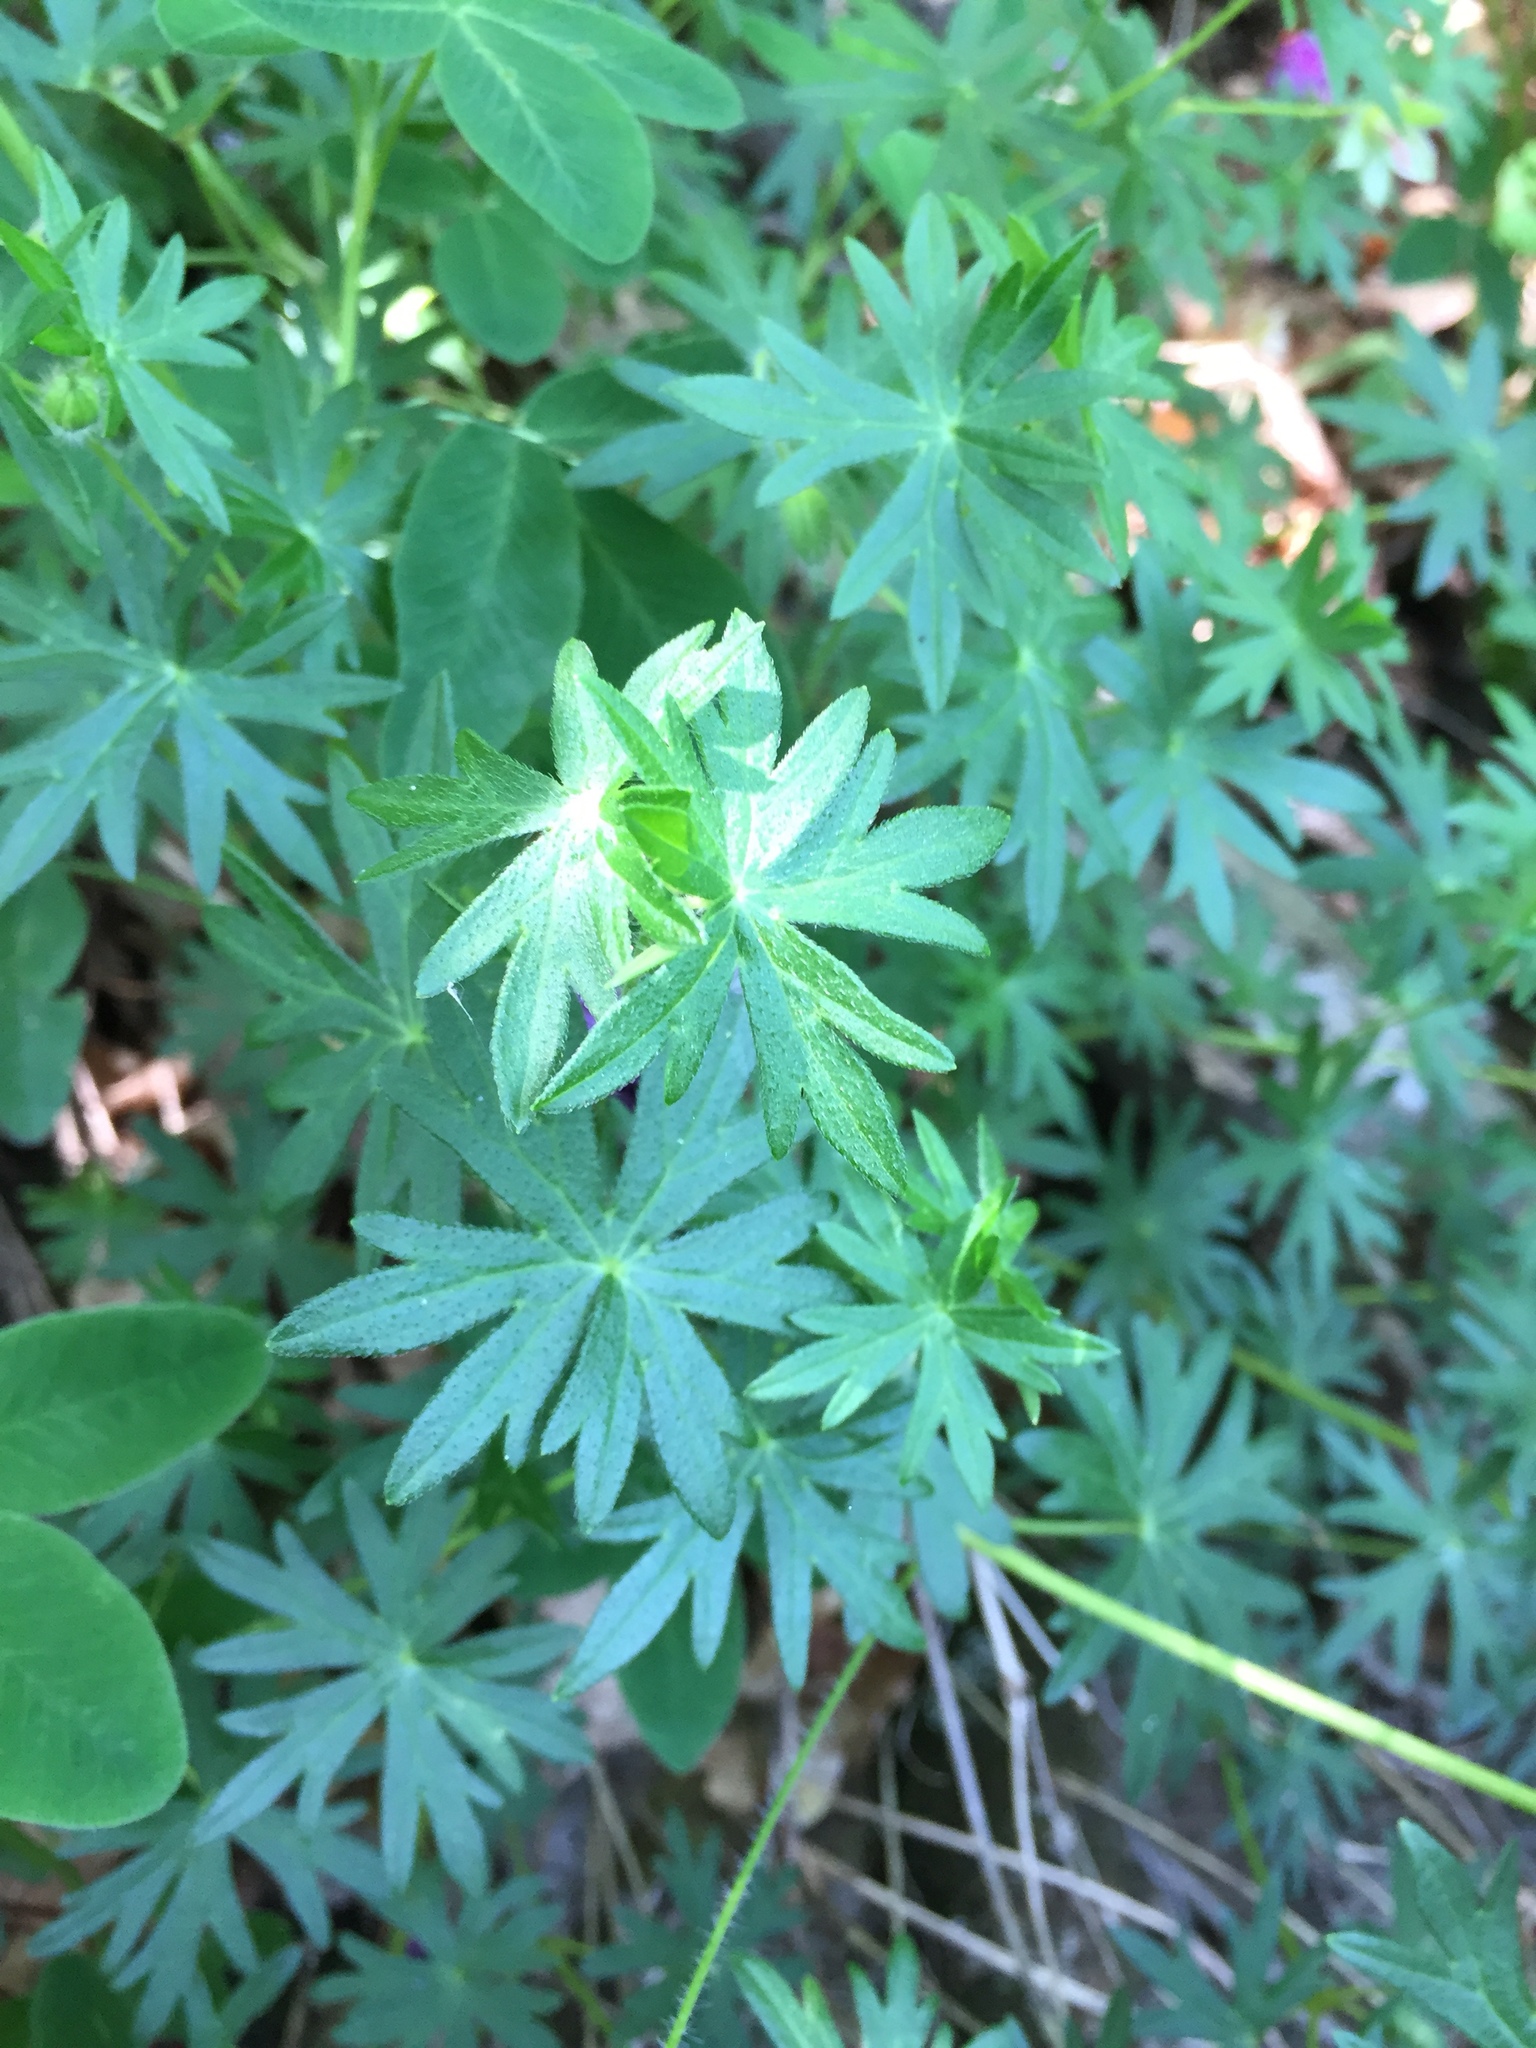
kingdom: Plantae
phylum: Tracheophyta
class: Magnoliopsida
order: Geraniales
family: Geraniaceae
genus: Geranium
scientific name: Geranium sanguineum
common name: Bloody crane's-bill
